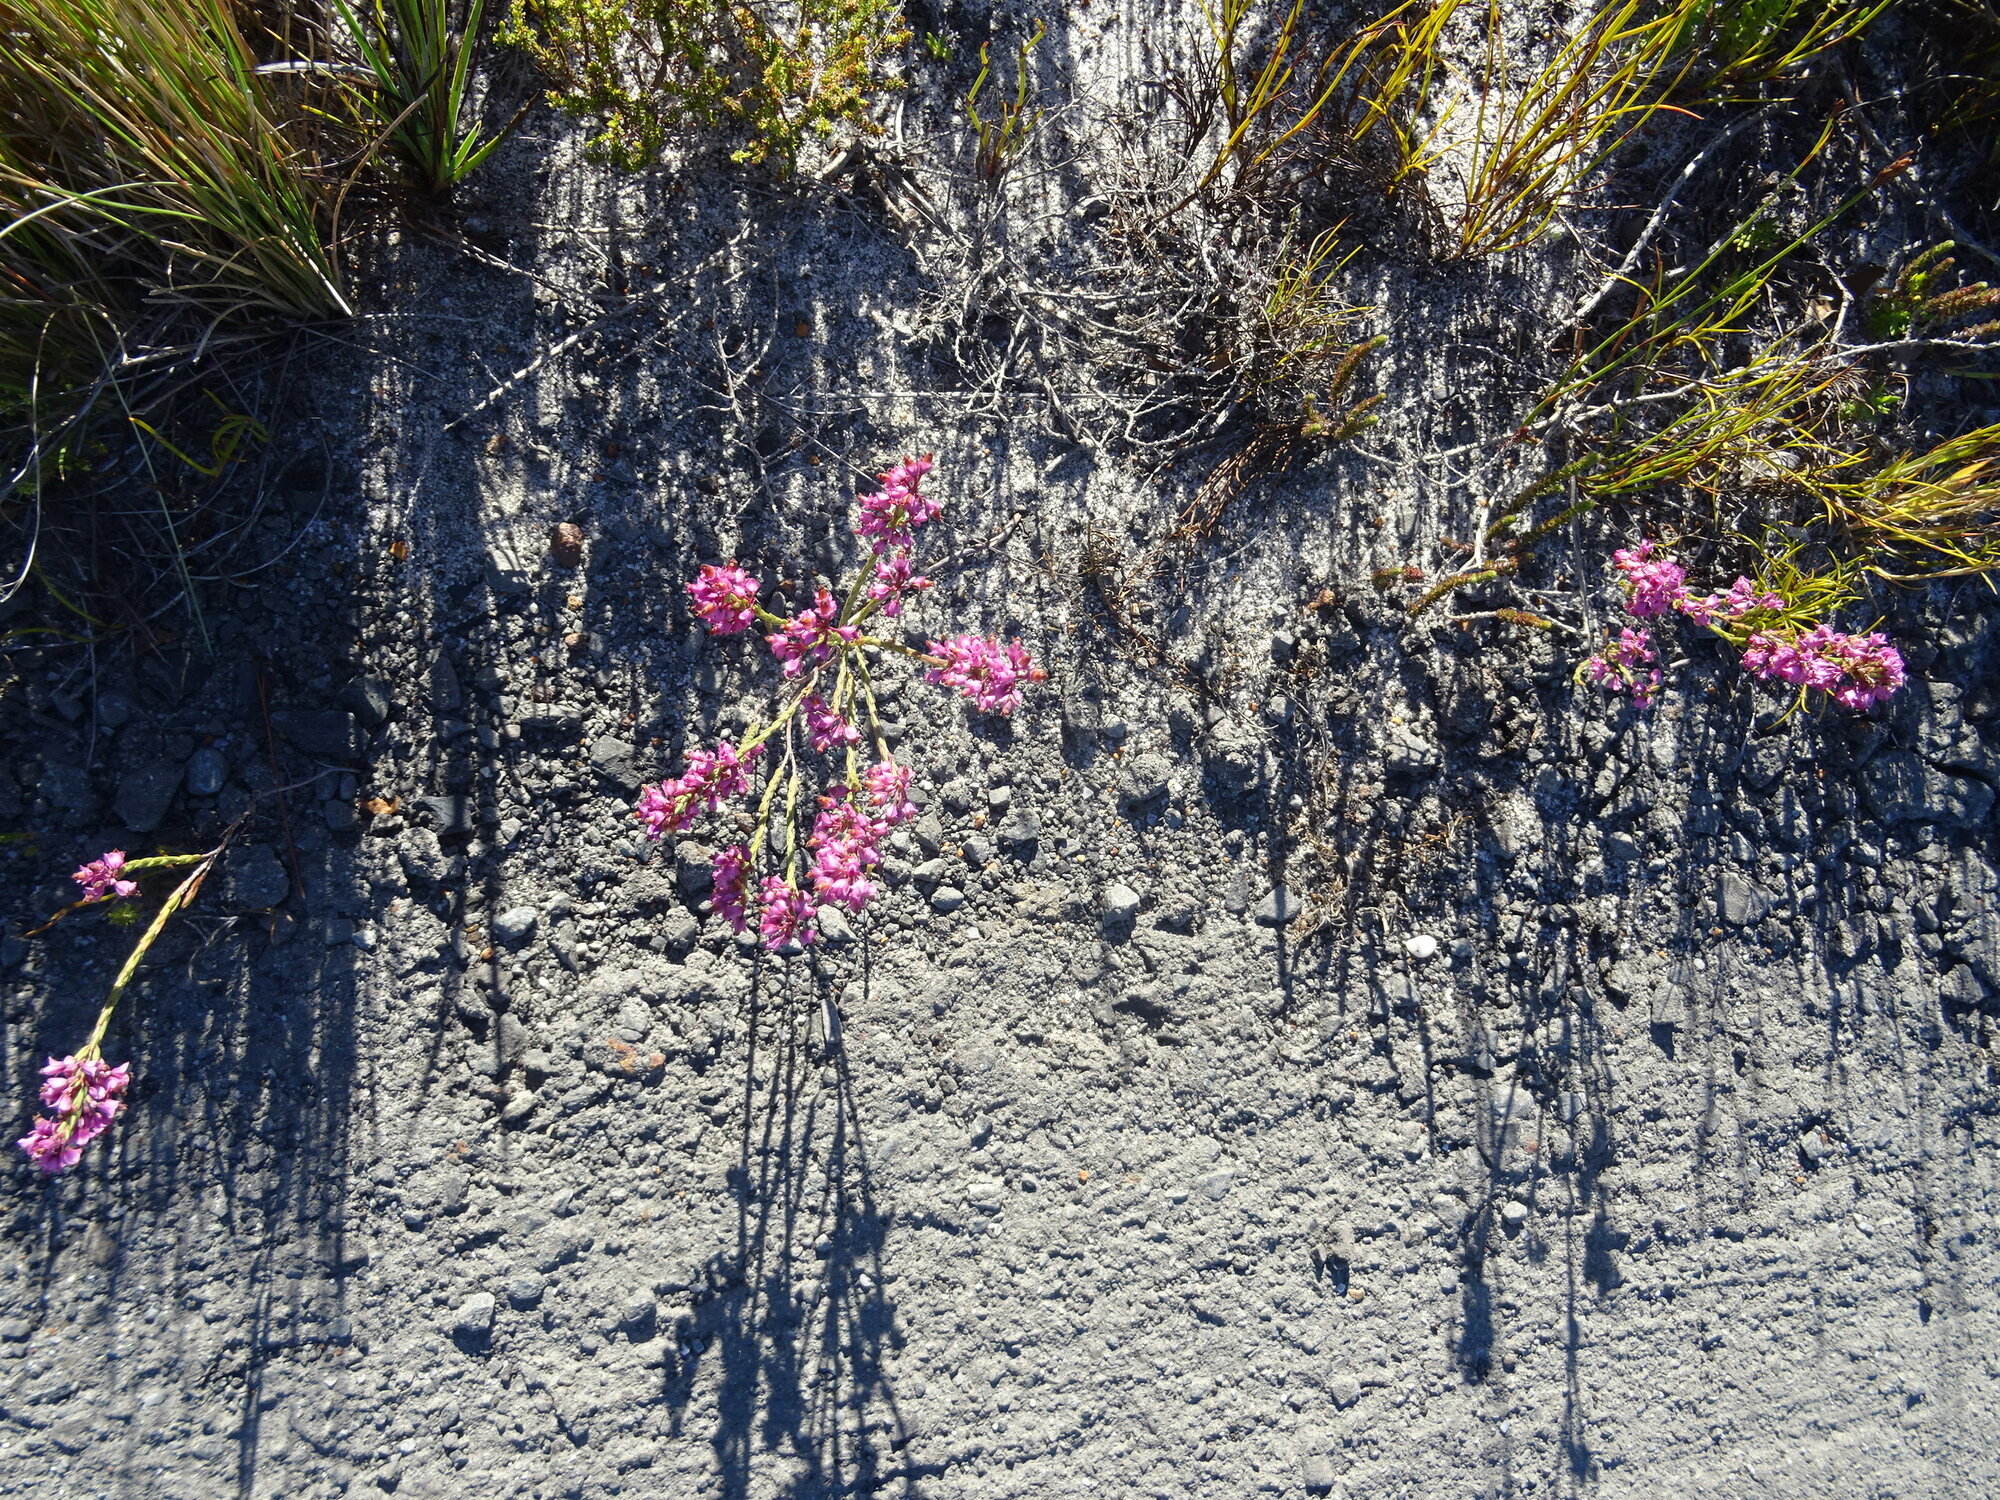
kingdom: Plantae
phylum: Tracheophyta
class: Magnoliopsida
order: Ericales
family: Ericaceae
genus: Erica
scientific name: Erica corifolia
